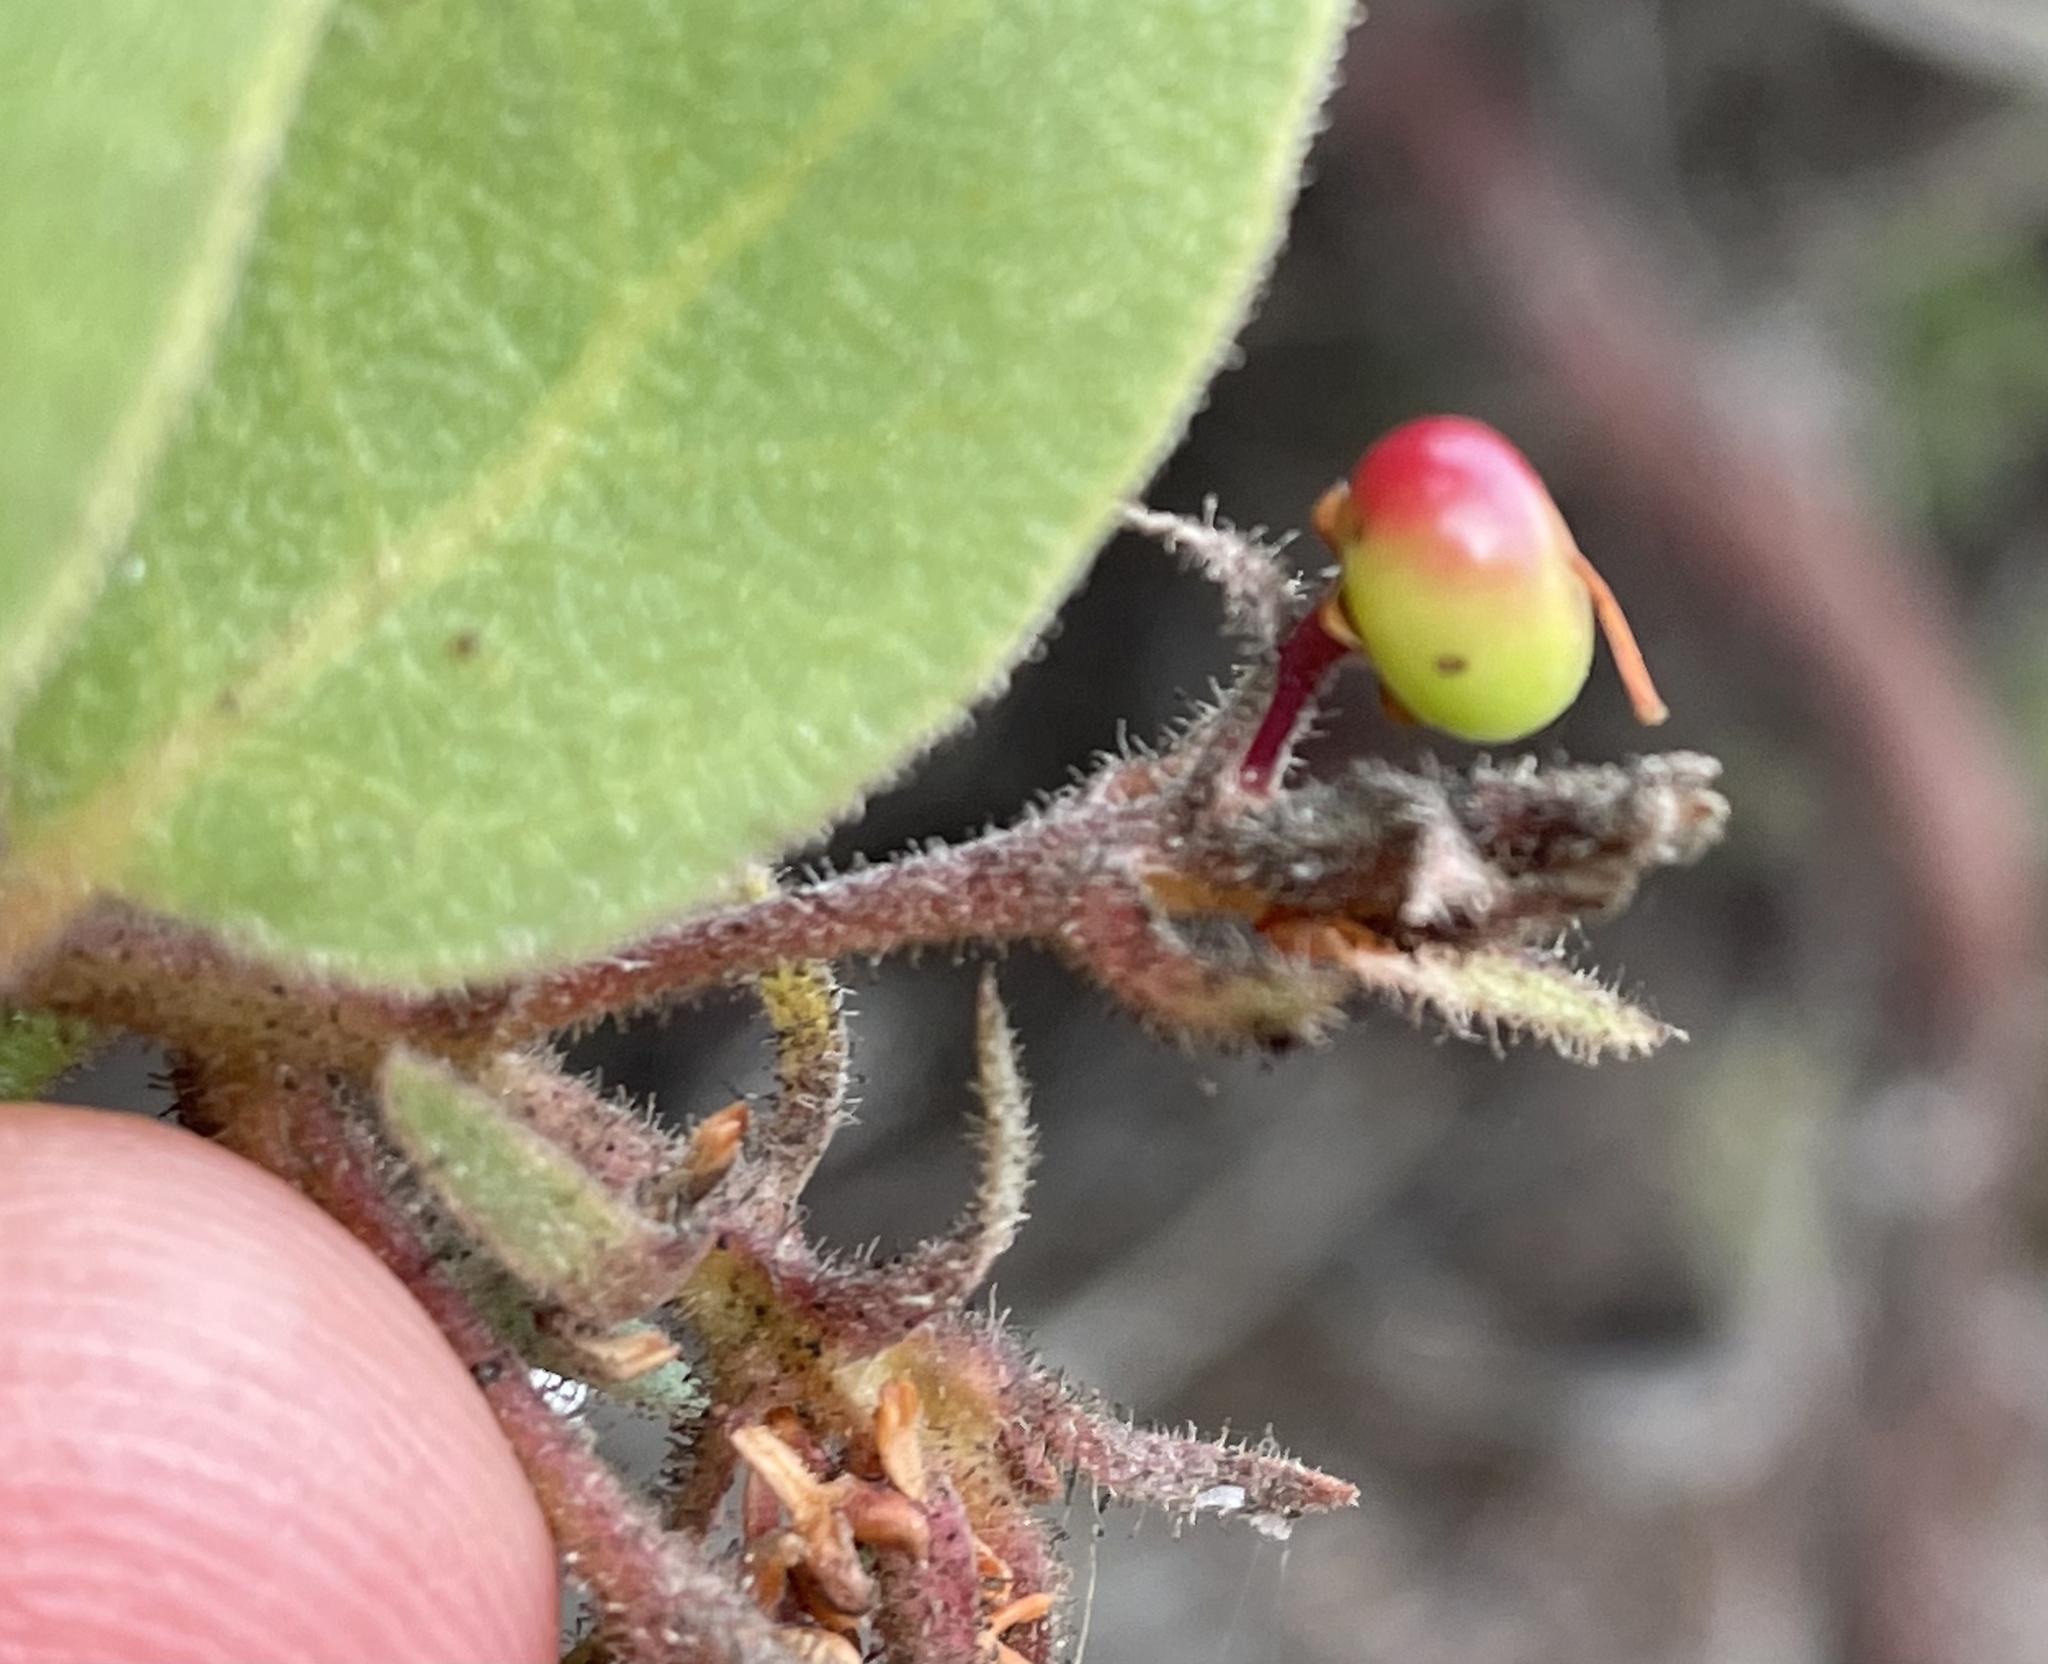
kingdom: Plantae
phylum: Tracheophyta
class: Magnoliopsida
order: Ericales
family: Ericaceae
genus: Arctostaphylos
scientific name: Arctostaphylos montereyensis
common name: Monterey manzanita
